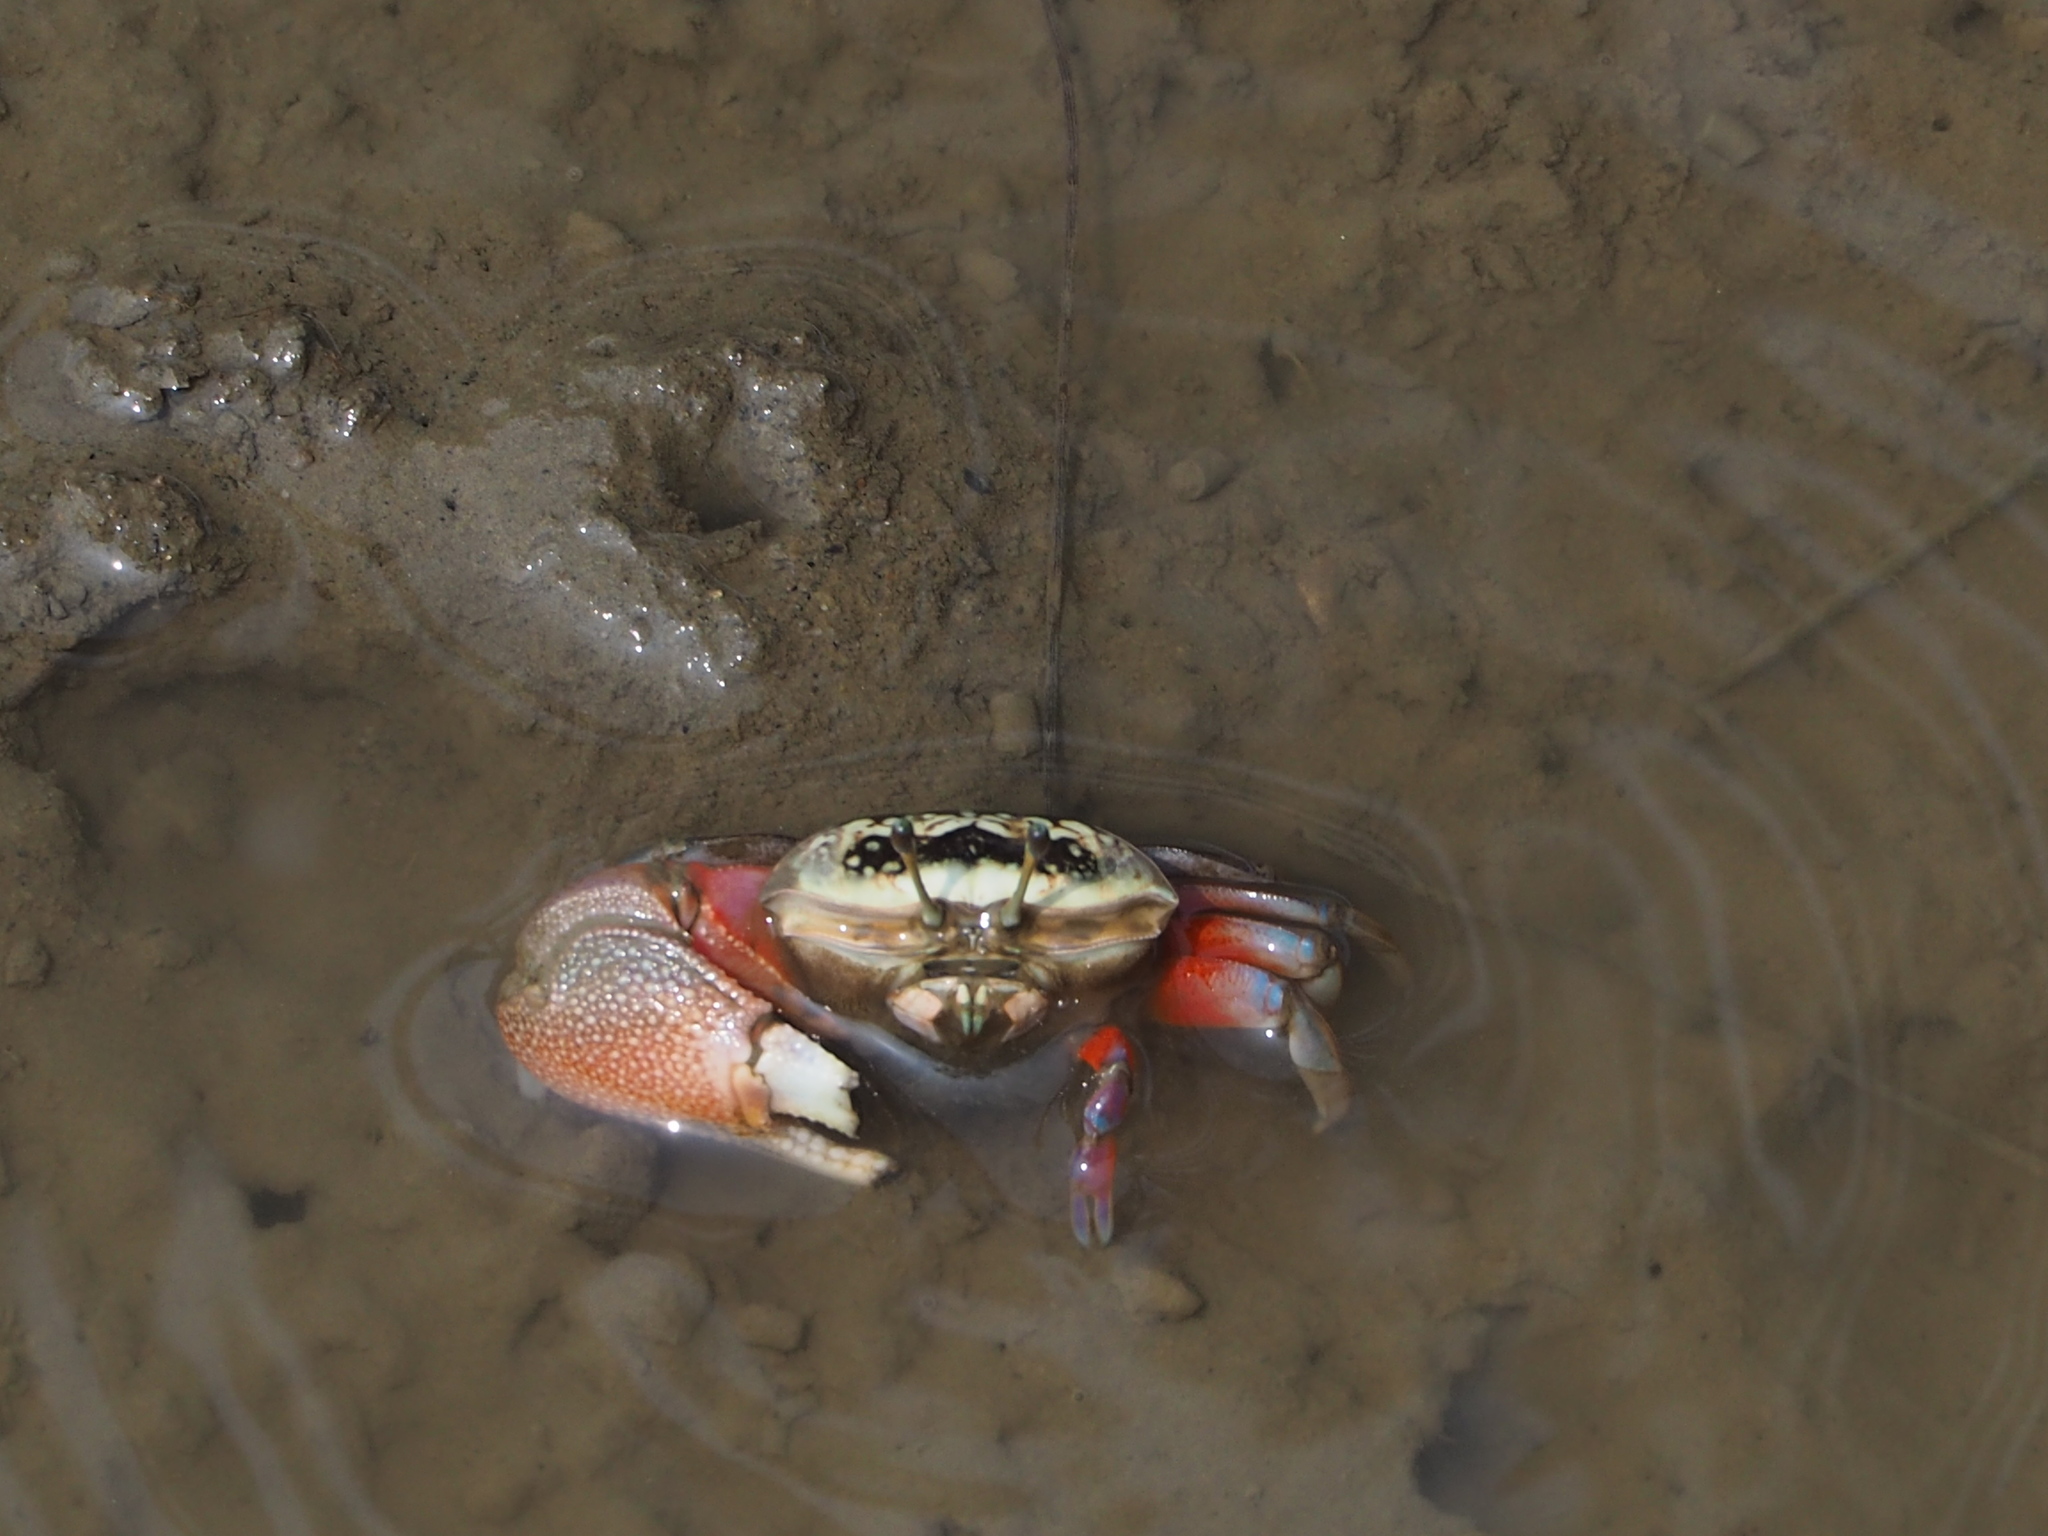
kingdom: Animalia
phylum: Arthropoda
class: Malacostraca
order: Decapoda
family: Ocypodidae
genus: Tubuca
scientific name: Tubuca arcuata
